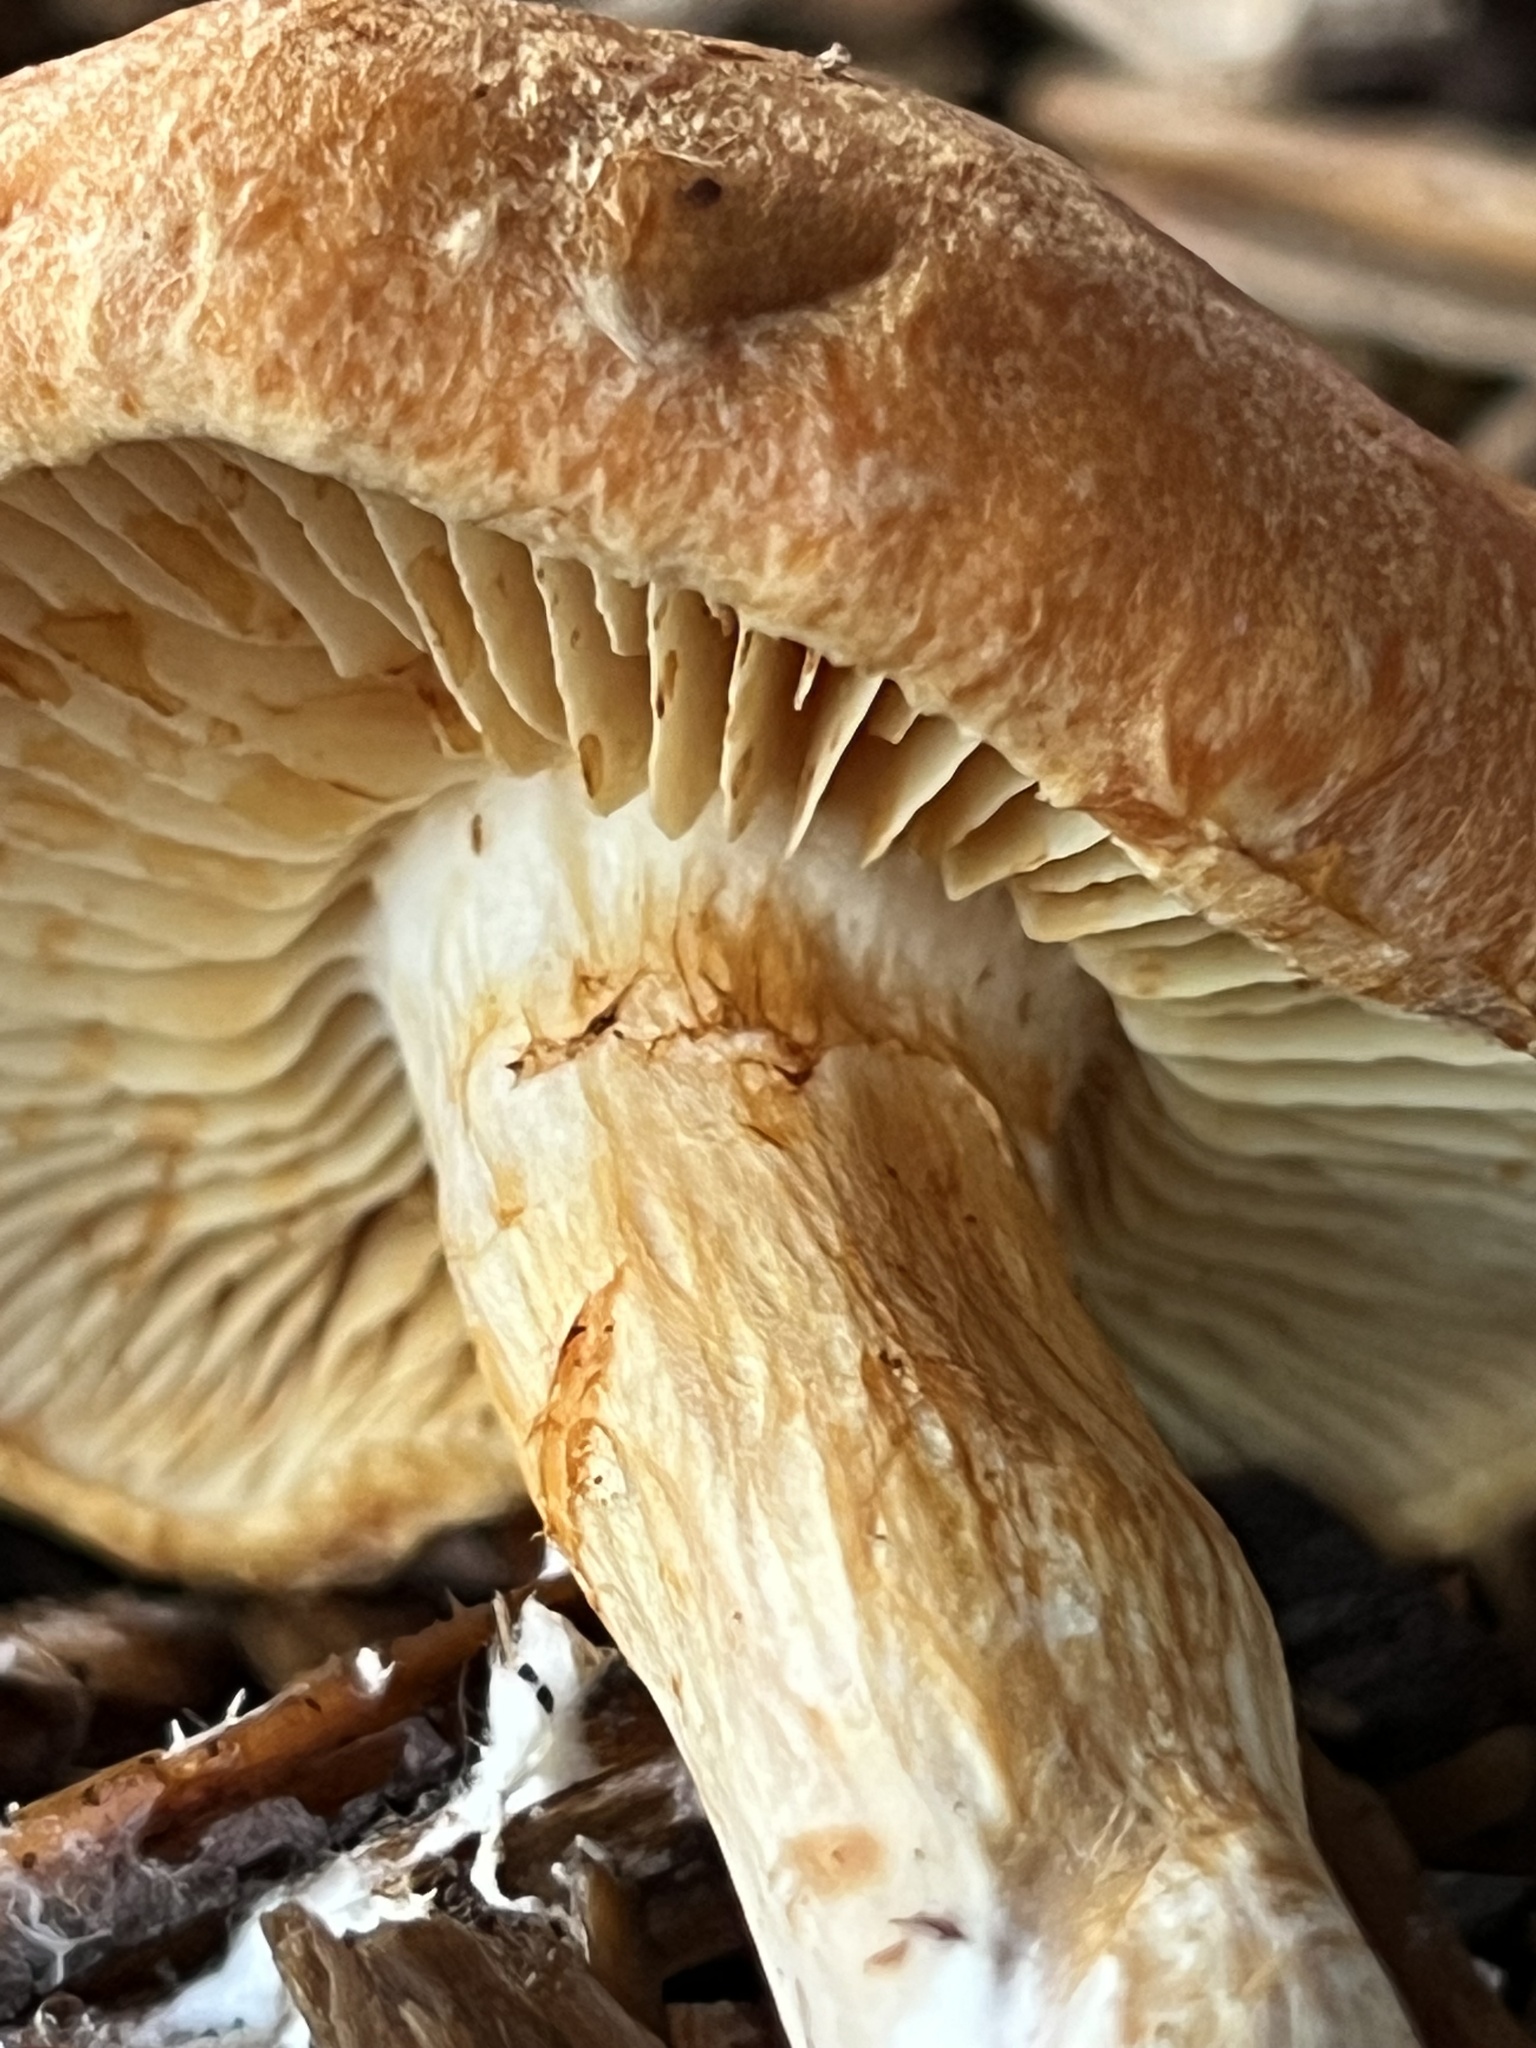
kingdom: Fungi
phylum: Basidiomycota
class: Agaricomycetes
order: Agaricales
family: Hymenogastraceae
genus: Gymnopilus
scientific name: Gymnopilus aurantiophyllus
